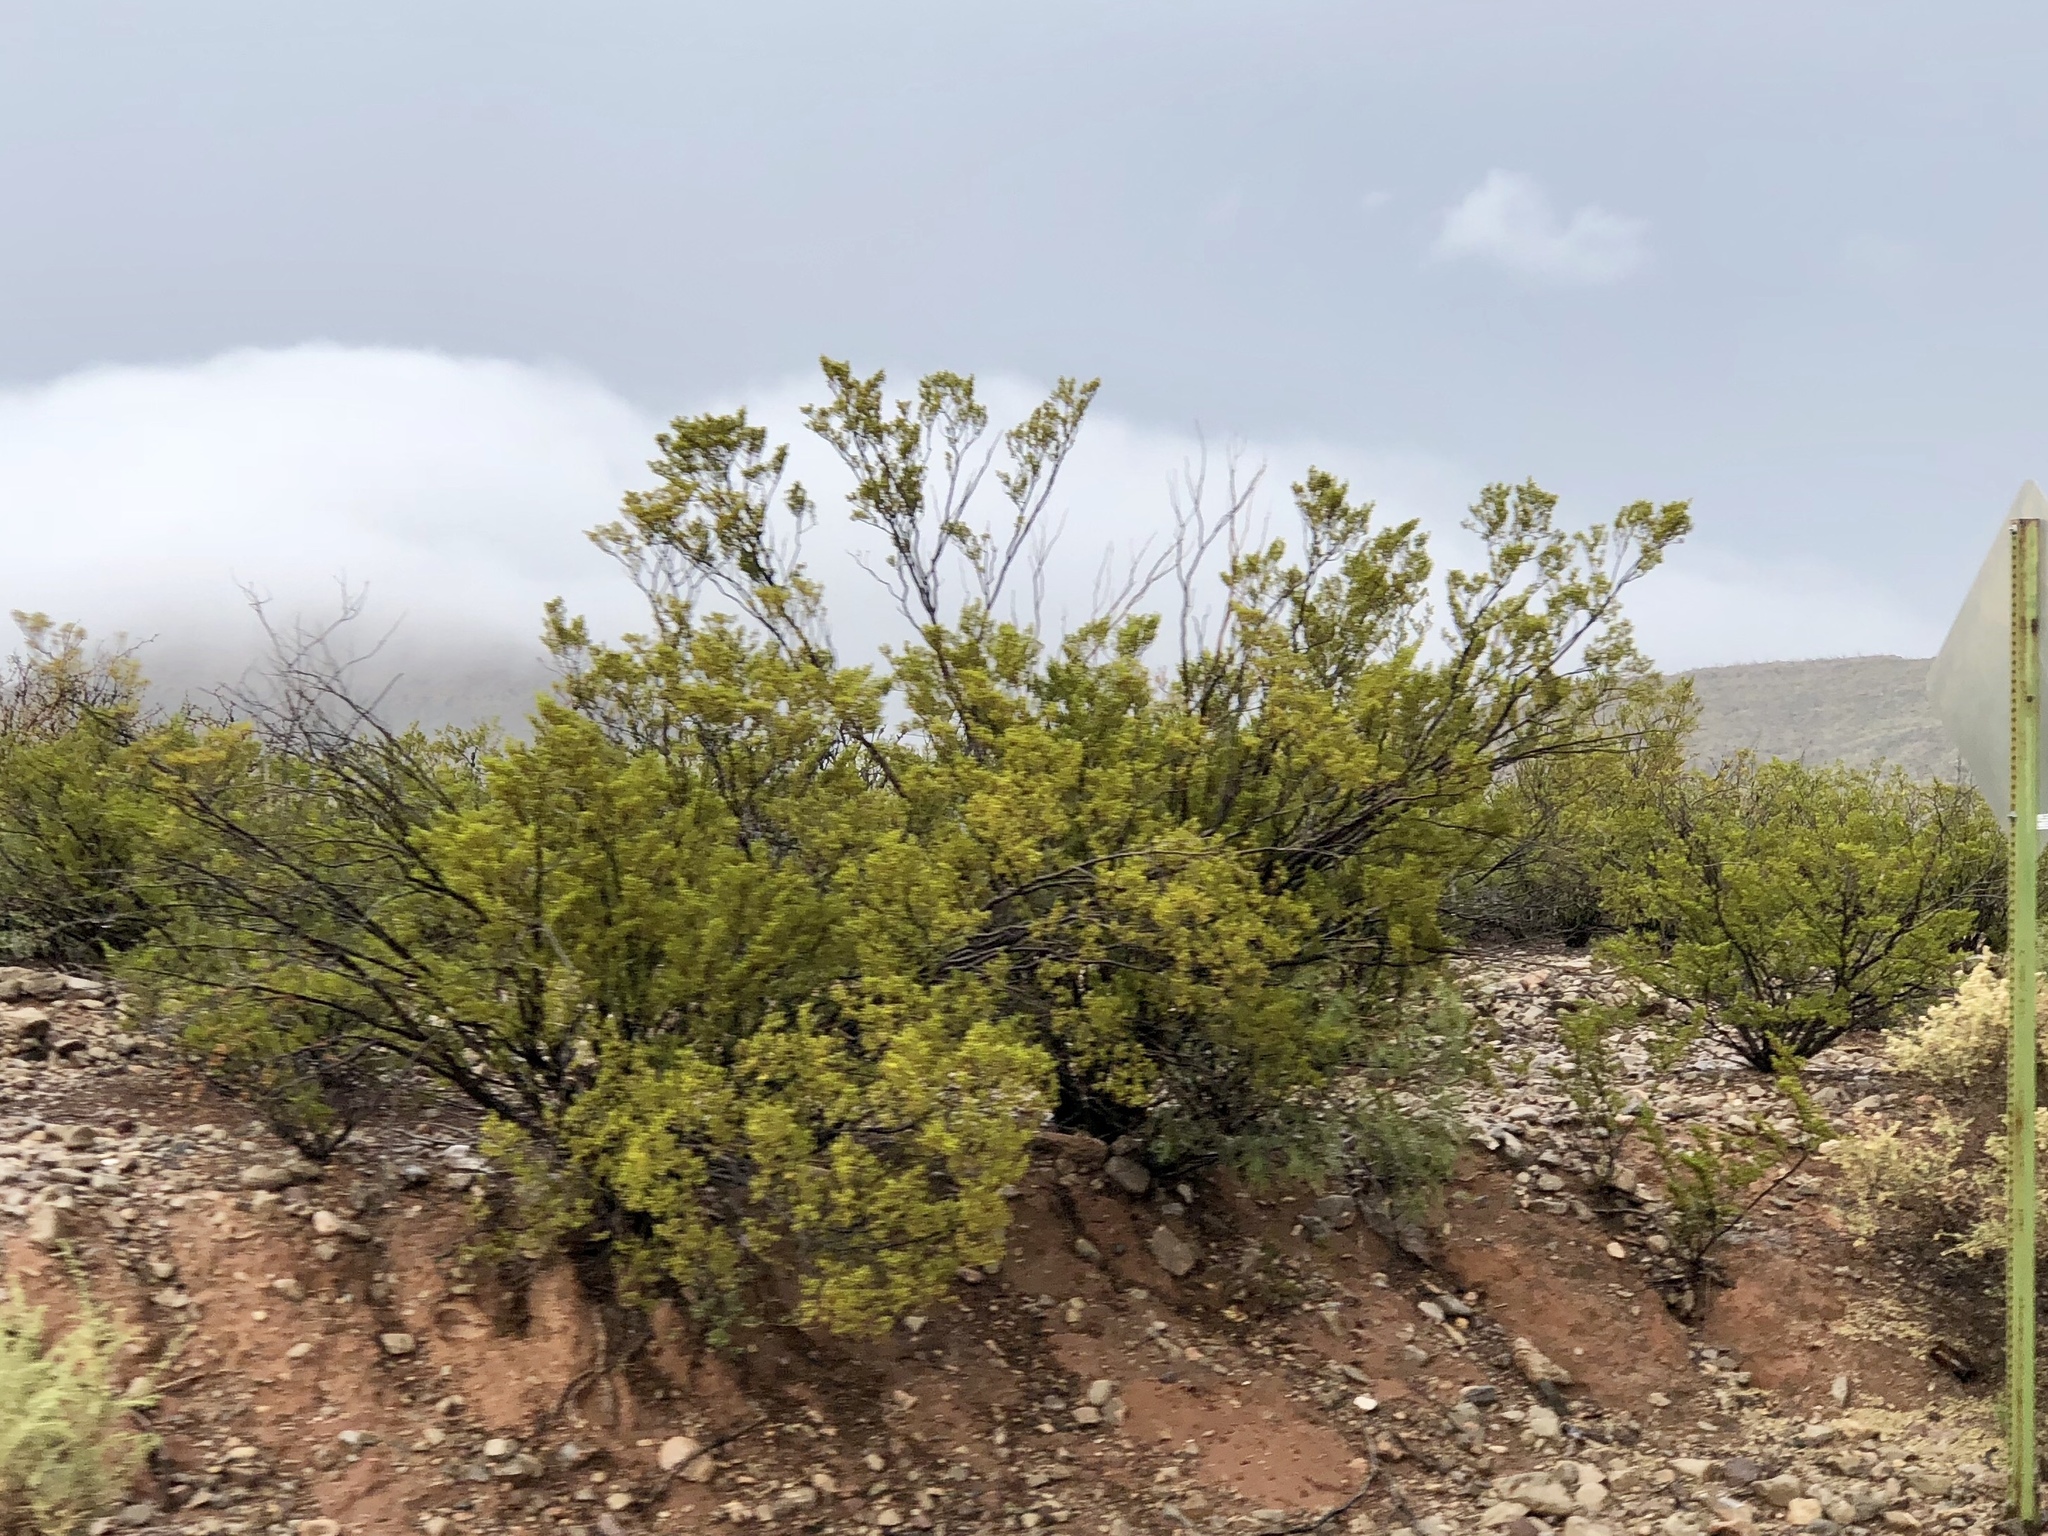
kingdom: Plantae
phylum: Tracheophyta
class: Magnoliopsida
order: Zygophyllales
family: Zygophyllaceae
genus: Larrea
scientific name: Larrea tridentata
